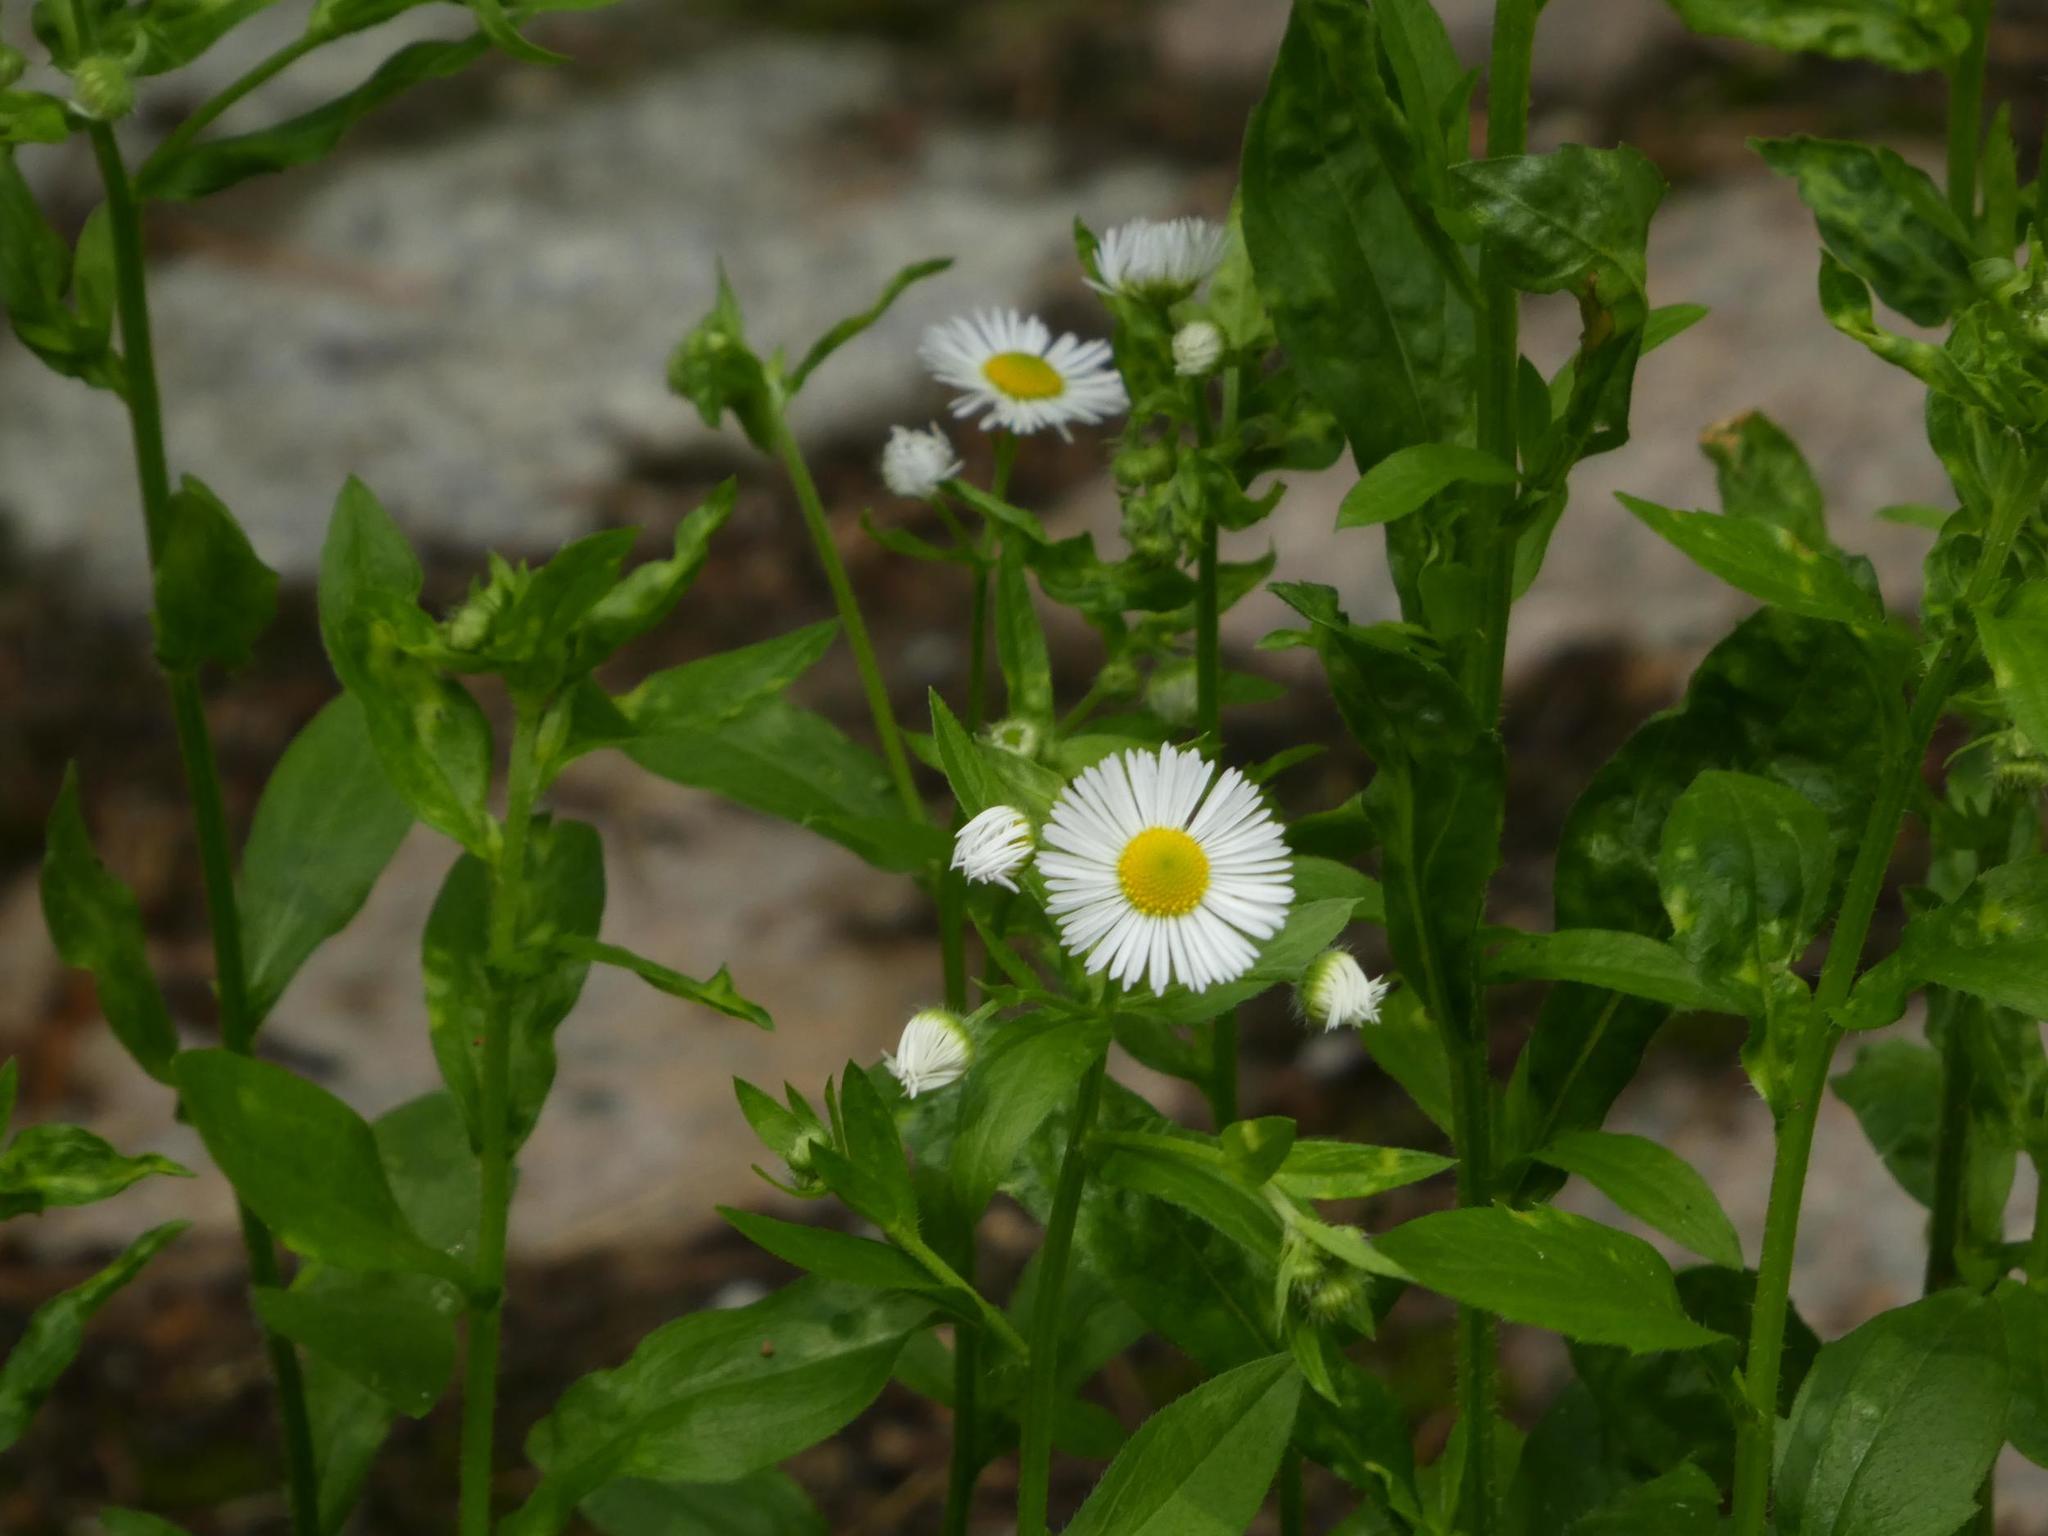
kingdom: Plantae
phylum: Tracheophyta
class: Magnoliopsida
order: Asterales
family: Asteraceae
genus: Erigeron
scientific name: Erigeron annuus
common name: Tall fleabane
